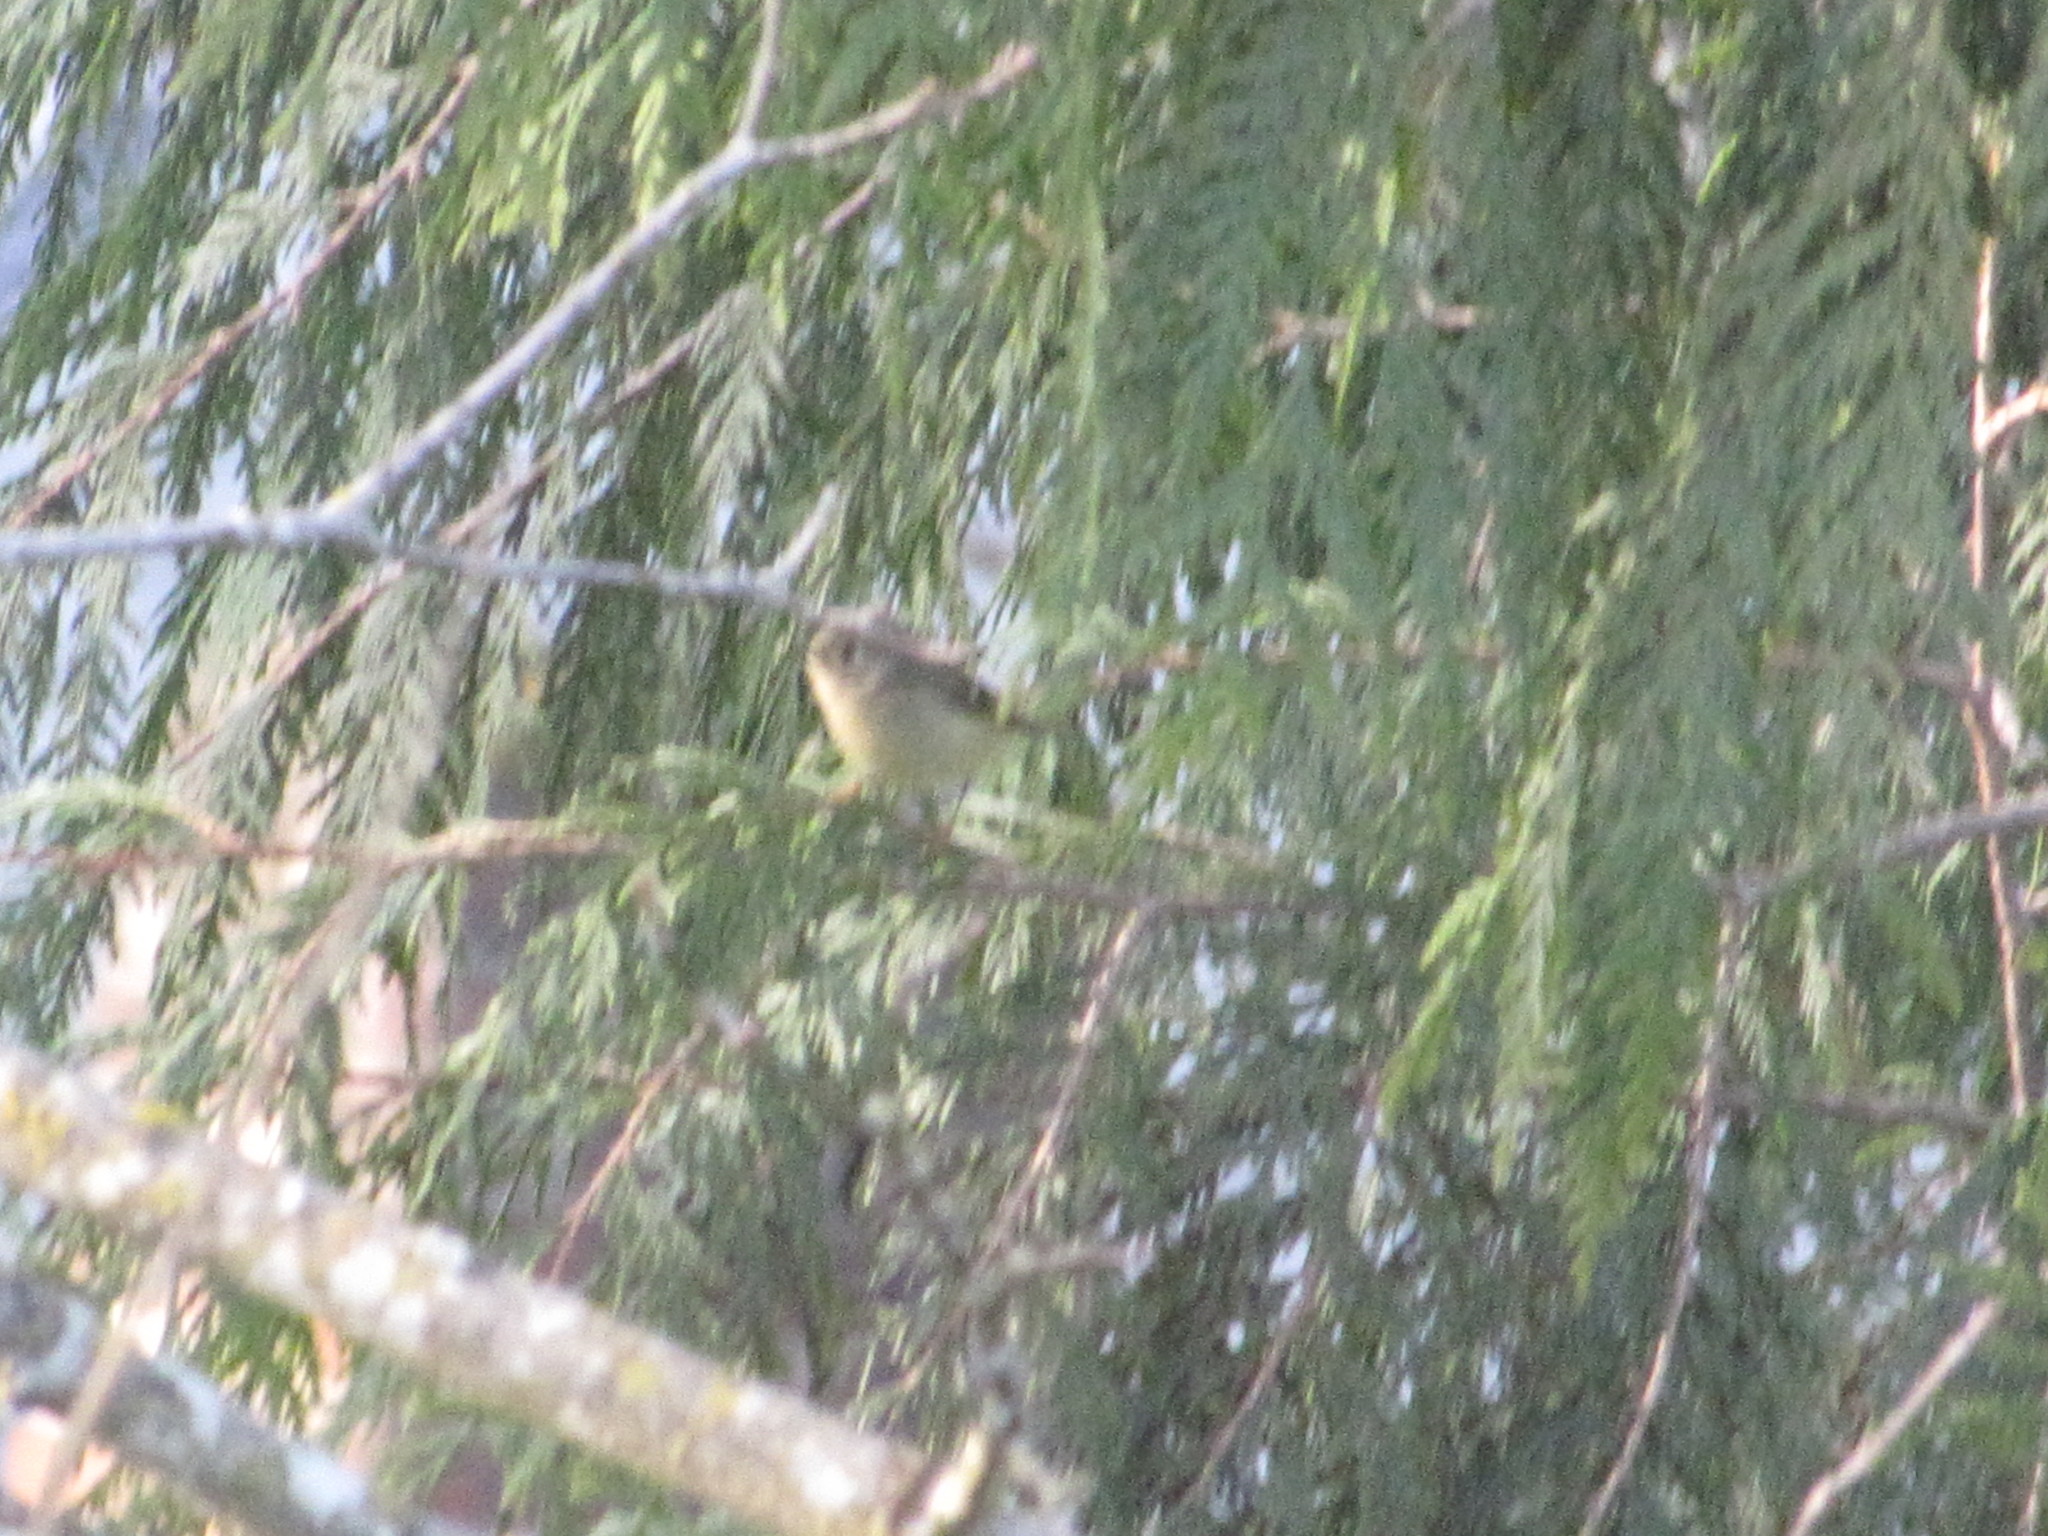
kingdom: Animalia
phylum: Chordata
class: Aves
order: Passeriformes
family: Regulidae
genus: Regulus
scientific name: Regulus calendula
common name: Ruby-crowned kinglet
